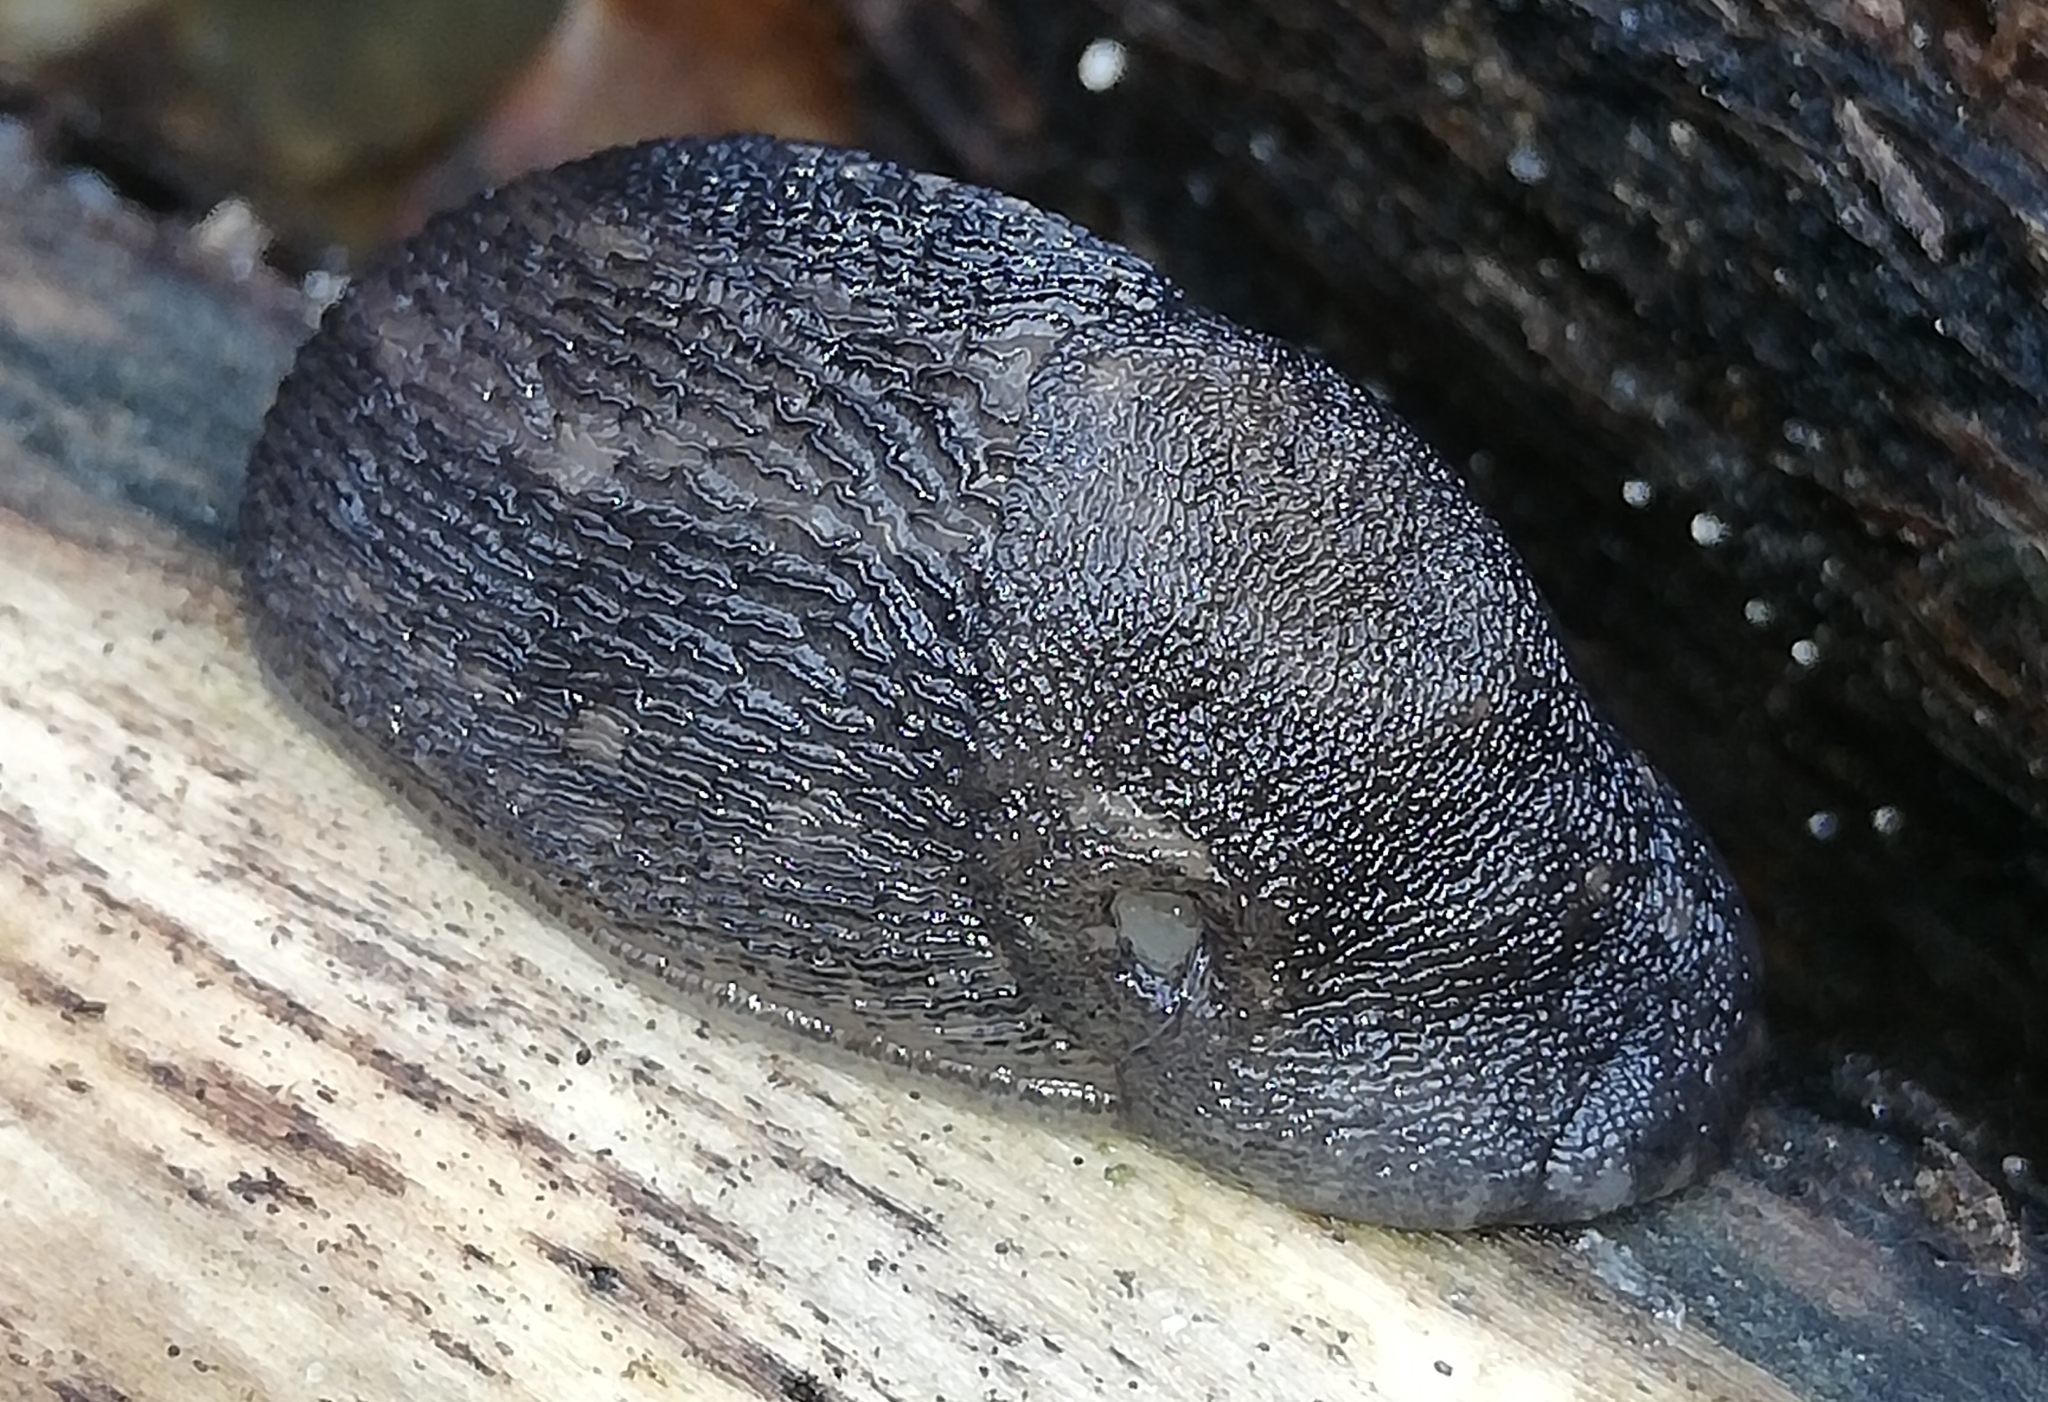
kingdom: Animalia
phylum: Mollusca
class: Gastropoda
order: Stylommatophora
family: Limacidae
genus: Limax
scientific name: Limax maximus
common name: Great grey slug
